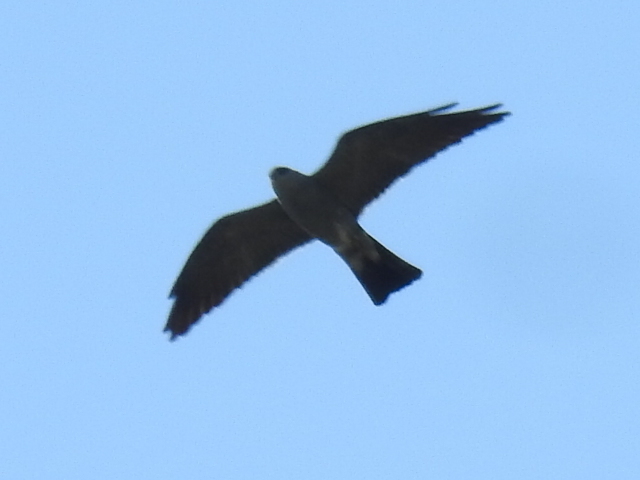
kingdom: Animalia
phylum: Chordata
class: Aves
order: Accipitriformes
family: Accipitridae
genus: Ictinia
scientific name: Ictinia mississippiensis
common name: Mississippi kite
